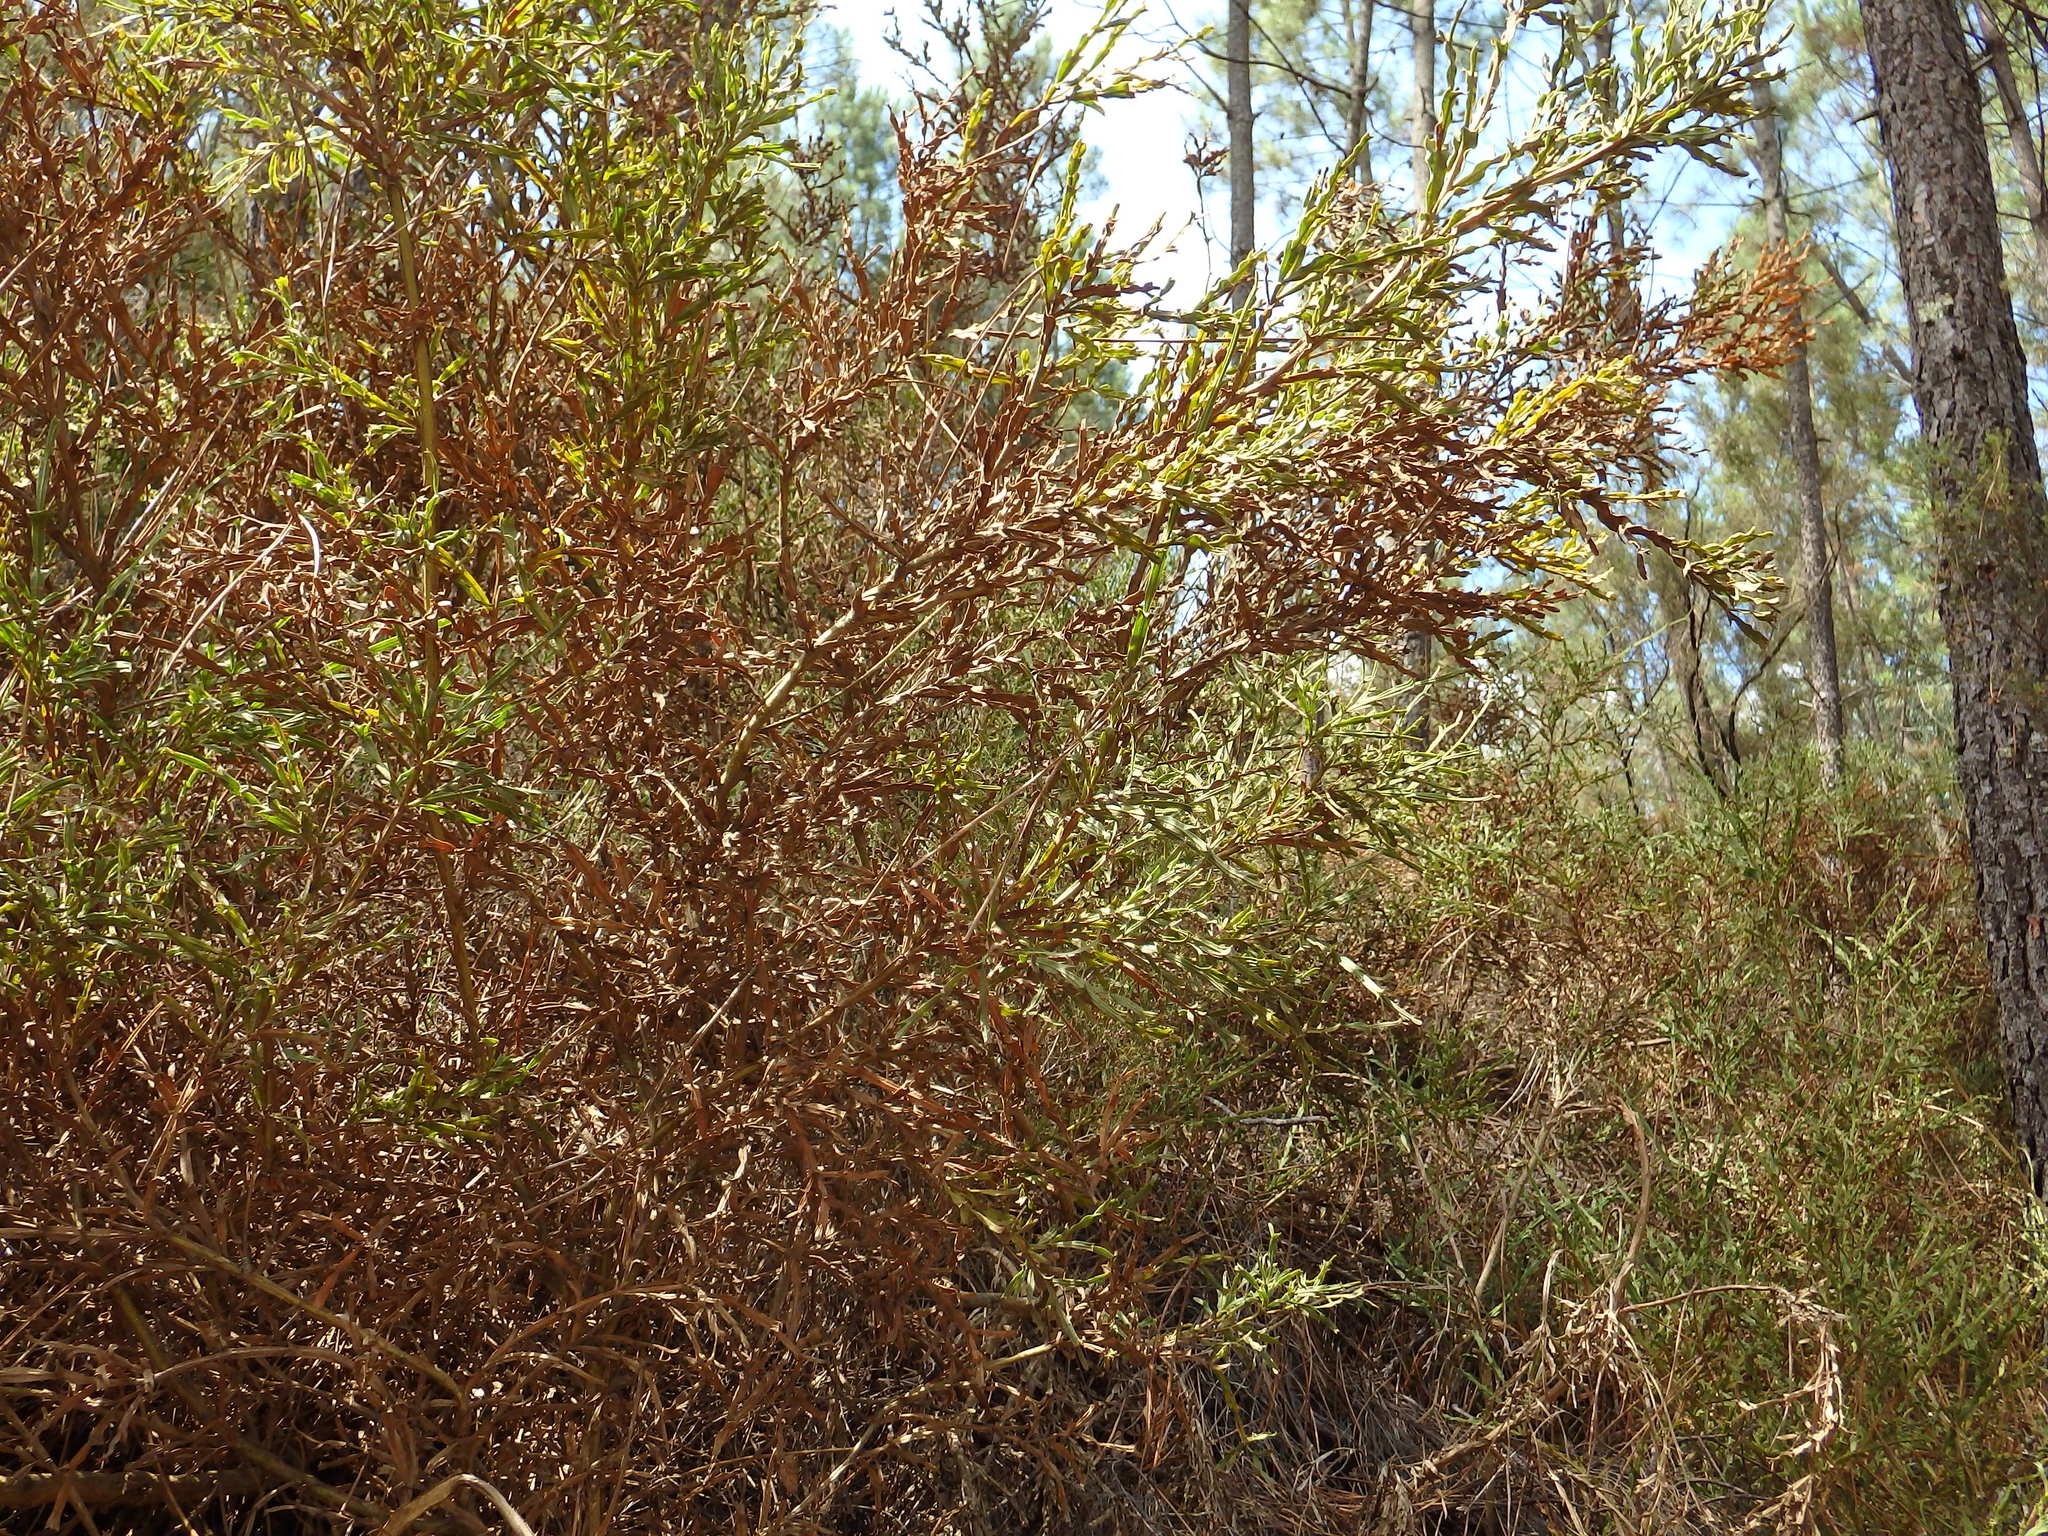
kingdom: Plantae
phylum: Tracheophyta
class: Magnoliopsida
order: Fabales
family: Fabaceae
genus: Genista
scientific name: Genista tridentata
